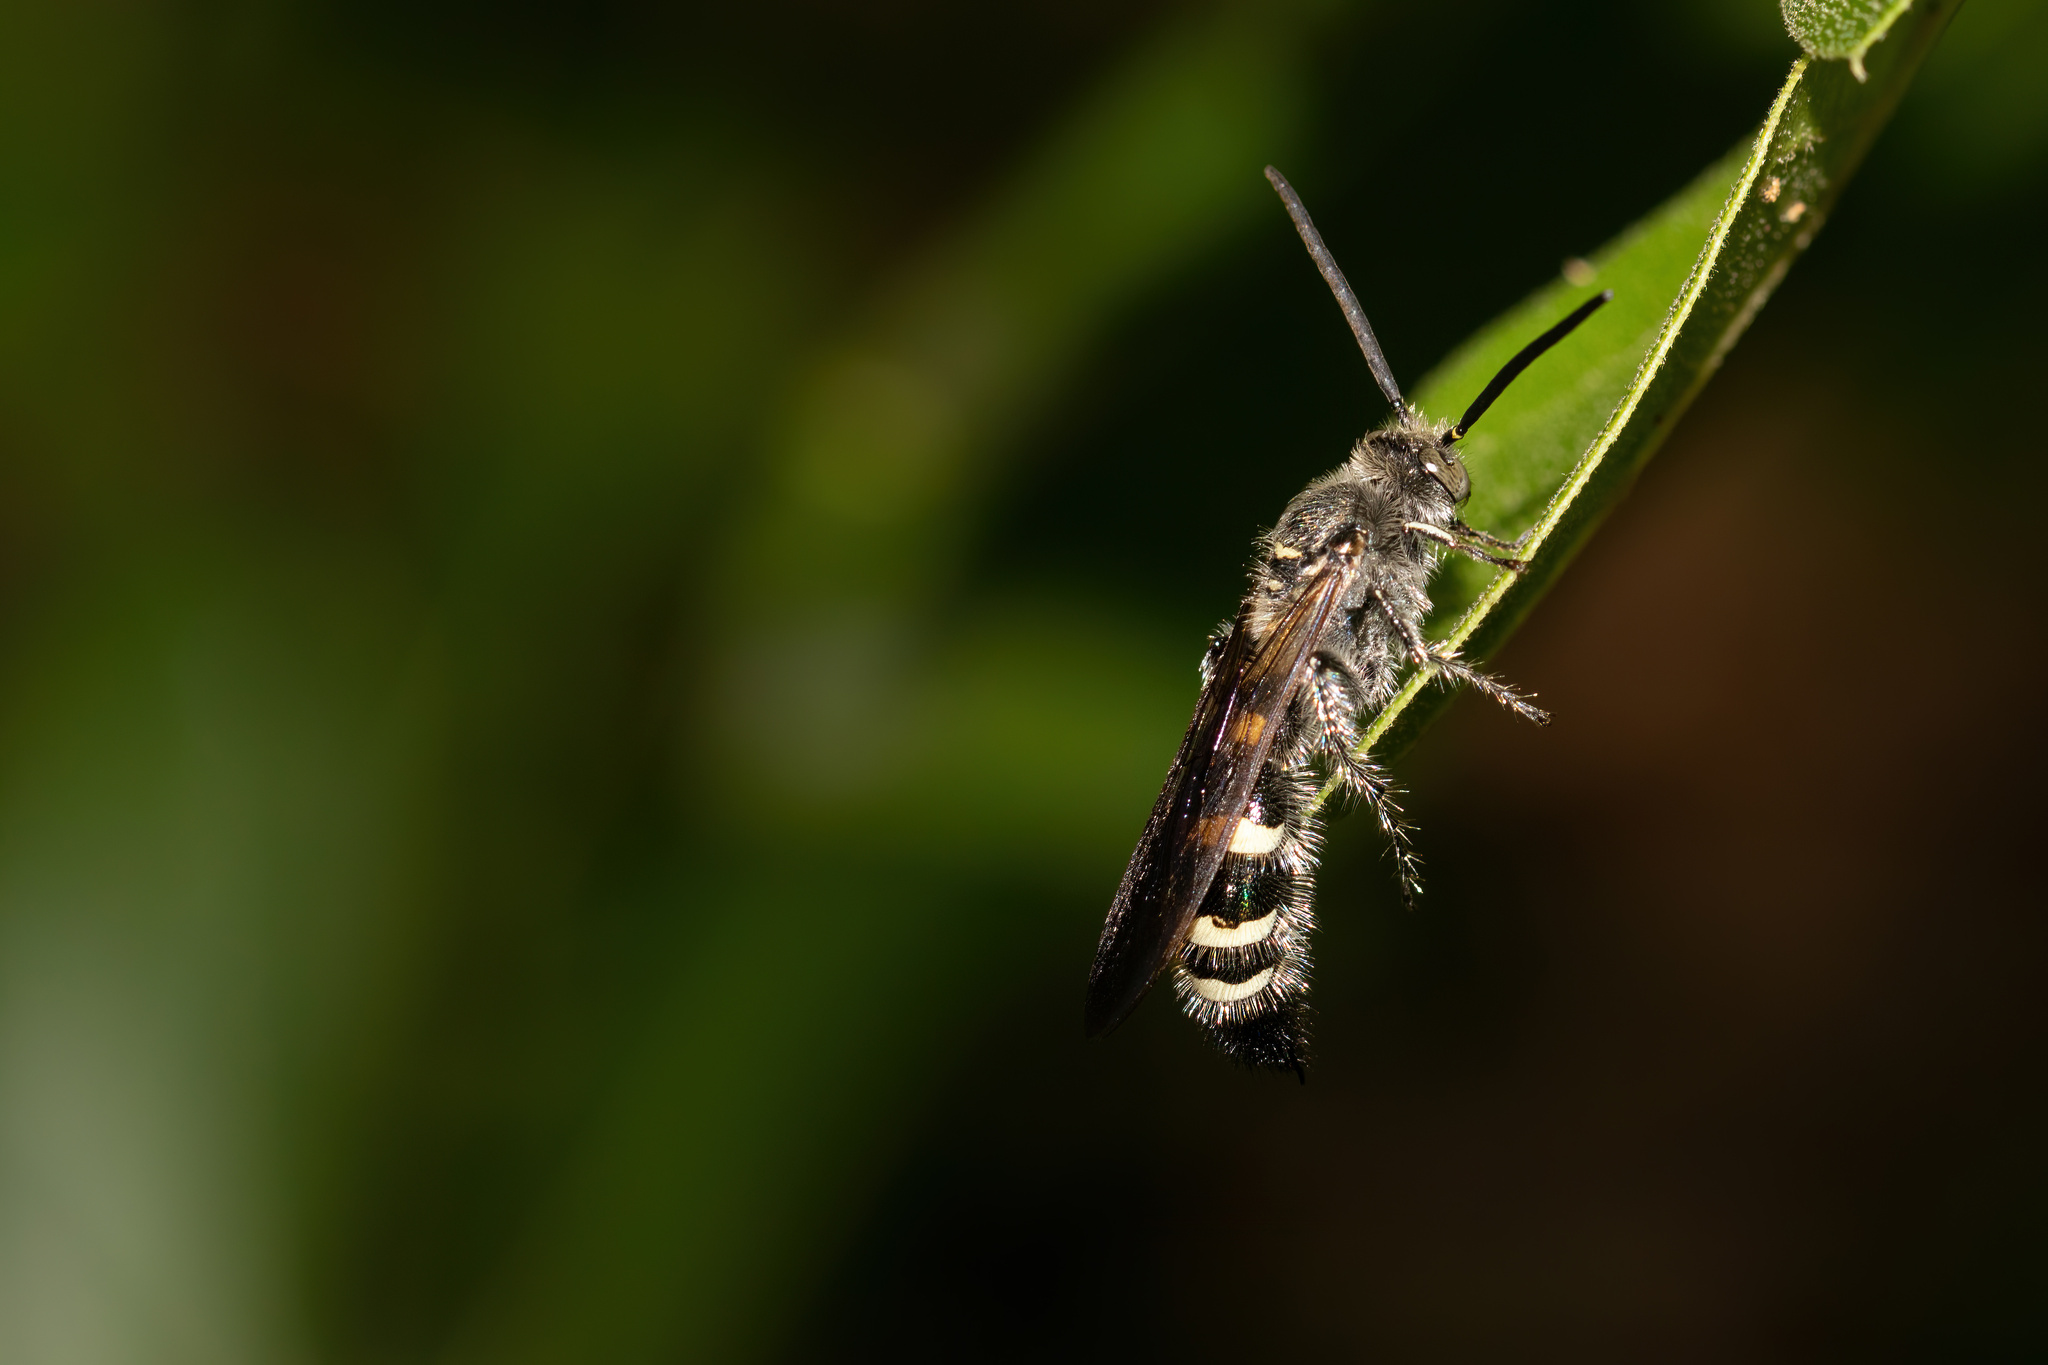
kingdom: Animalia
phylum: Arthropoda
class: Insecta
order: Hymenoptera
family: Scoliidae
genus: Dielis
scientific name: Dielis
